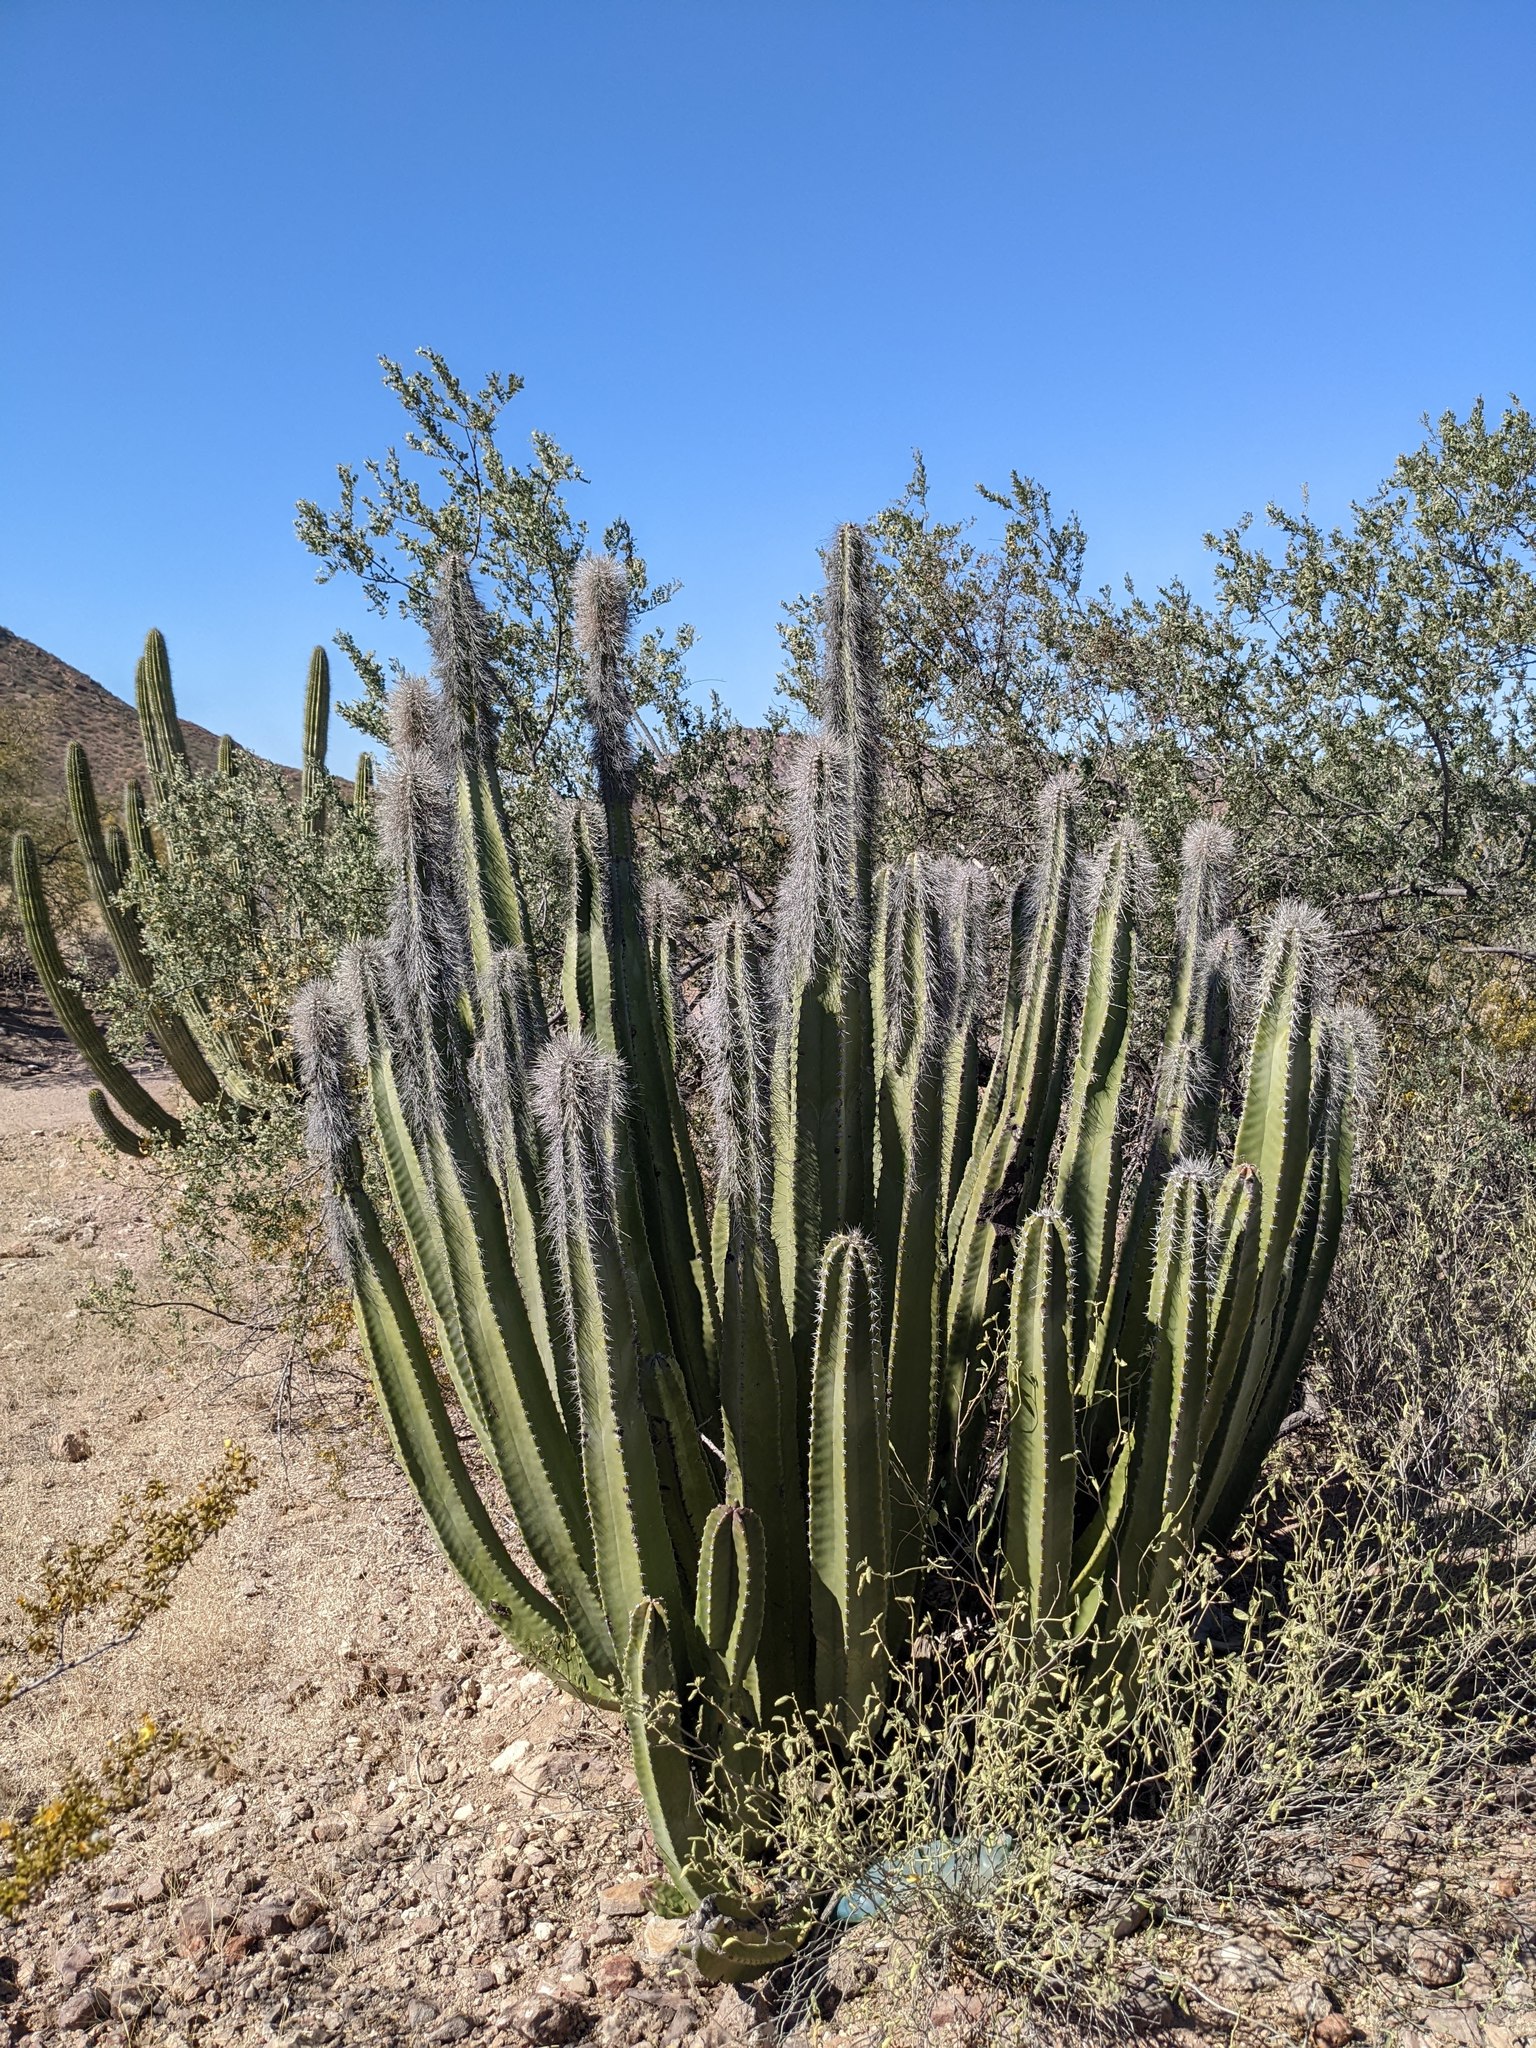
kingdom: Plantae
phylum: Tracheophyta
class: Magnoliopsida
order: Caryophyllales
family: Cactaceae
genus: Pachycereus
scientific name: Pachycereus schottii
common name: Senita cactus
